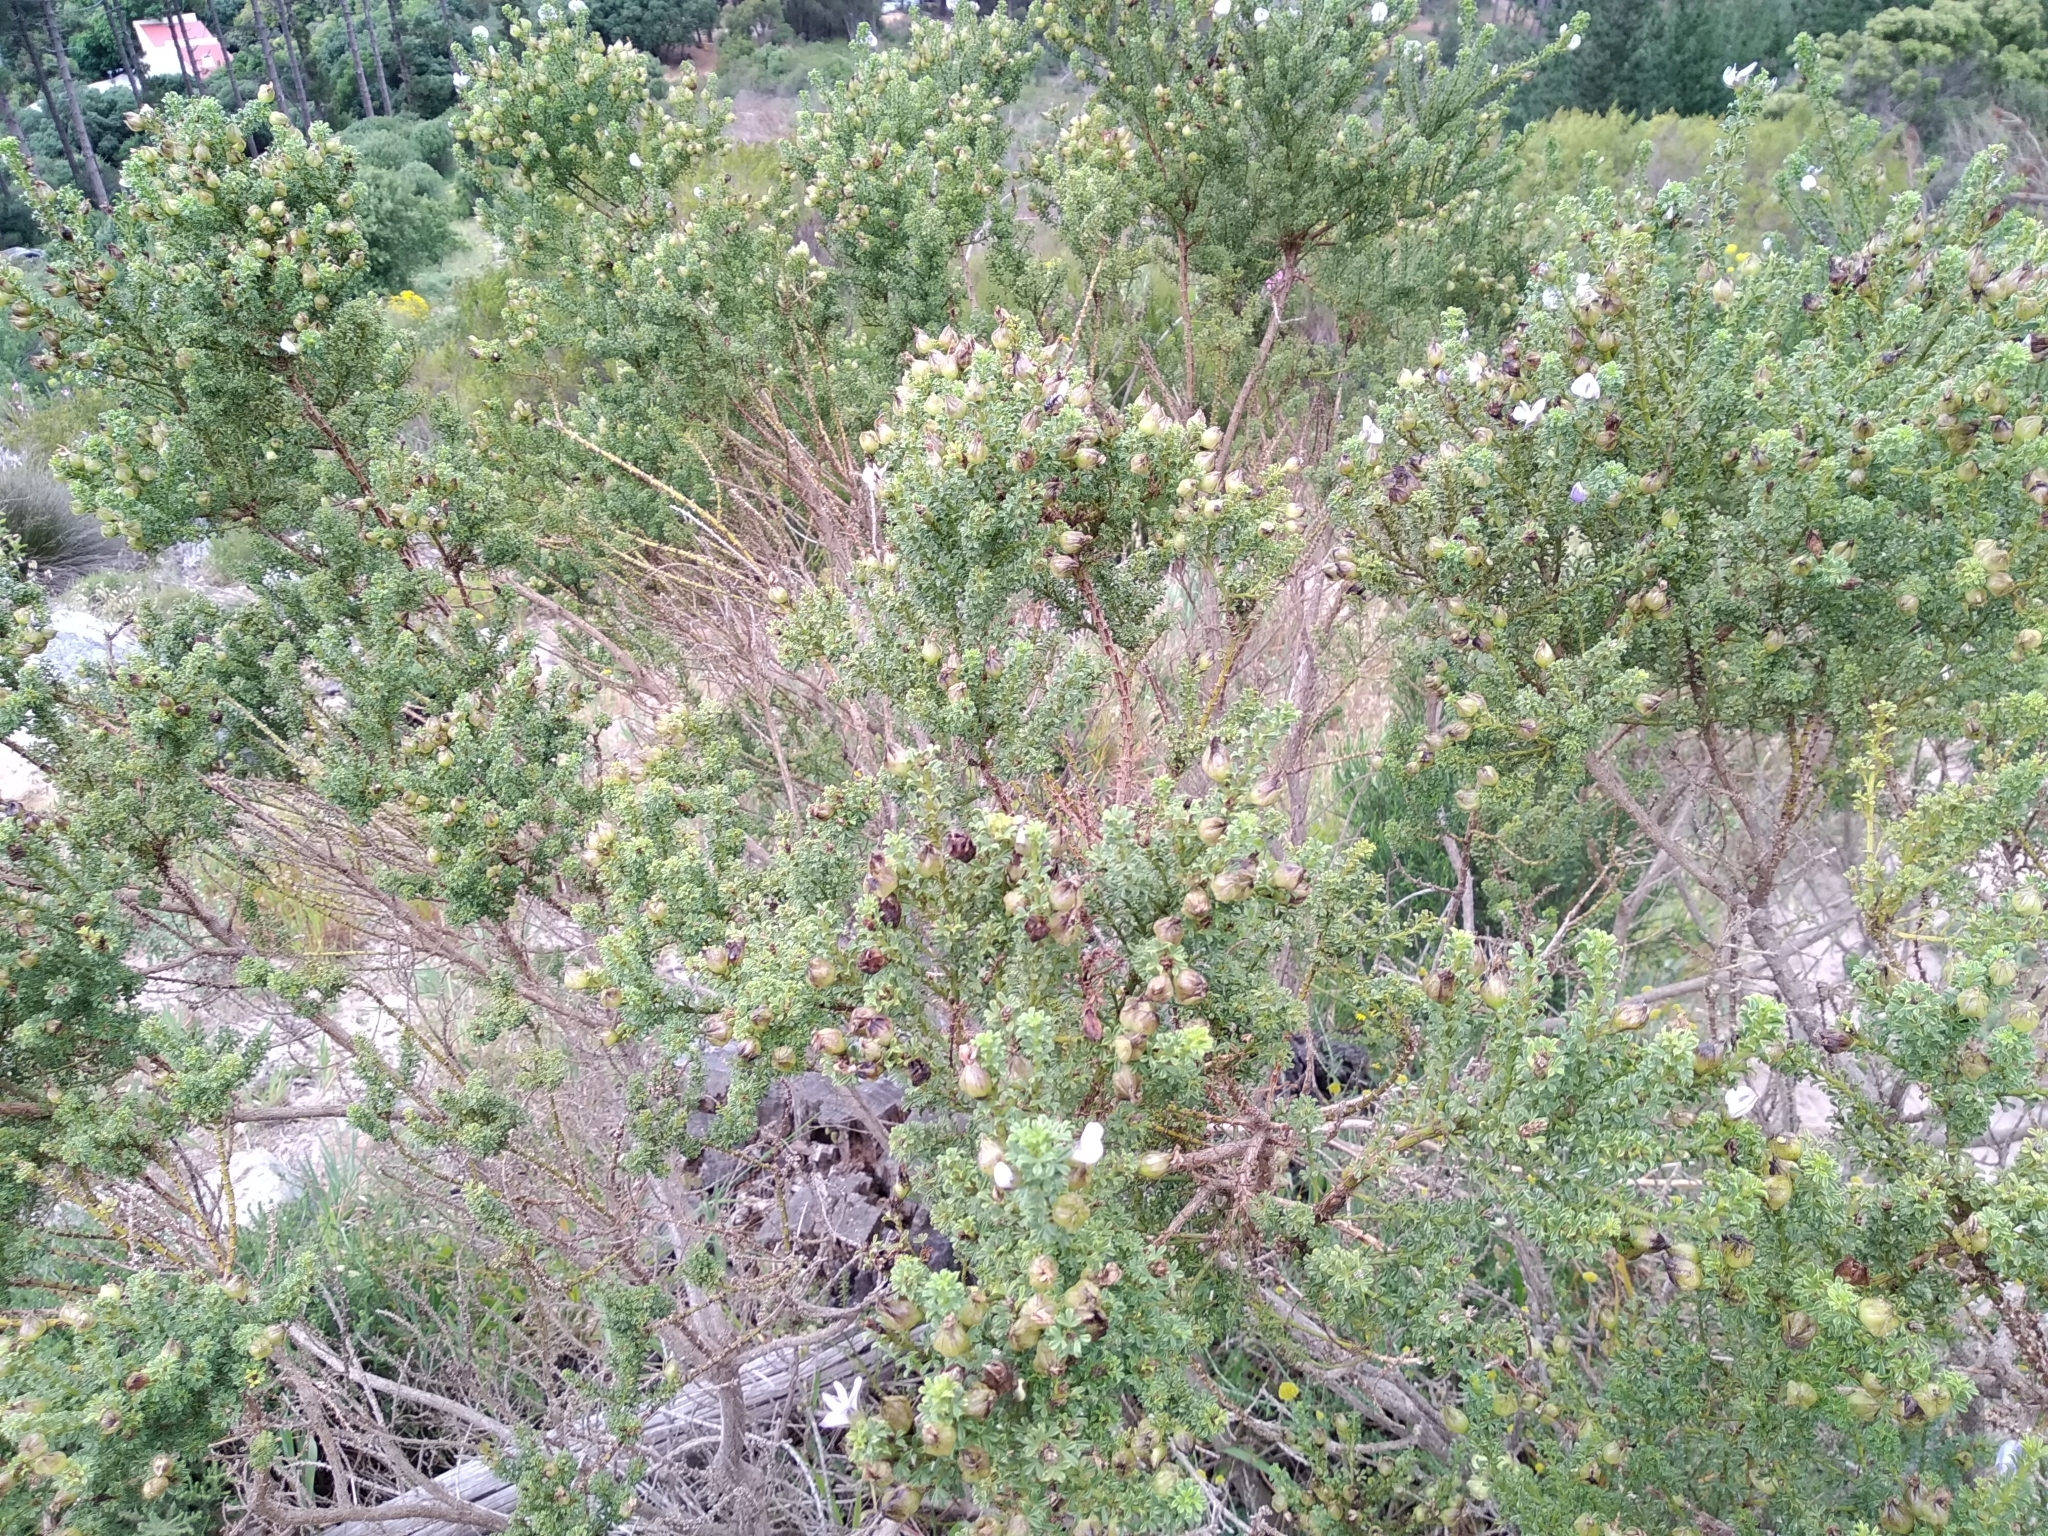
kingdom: Plantae
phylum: Tracheophyta
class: Magnoliopsida
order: Fabales
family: Fabaceae
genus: Psoralea
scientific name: Psoralea aculeata
